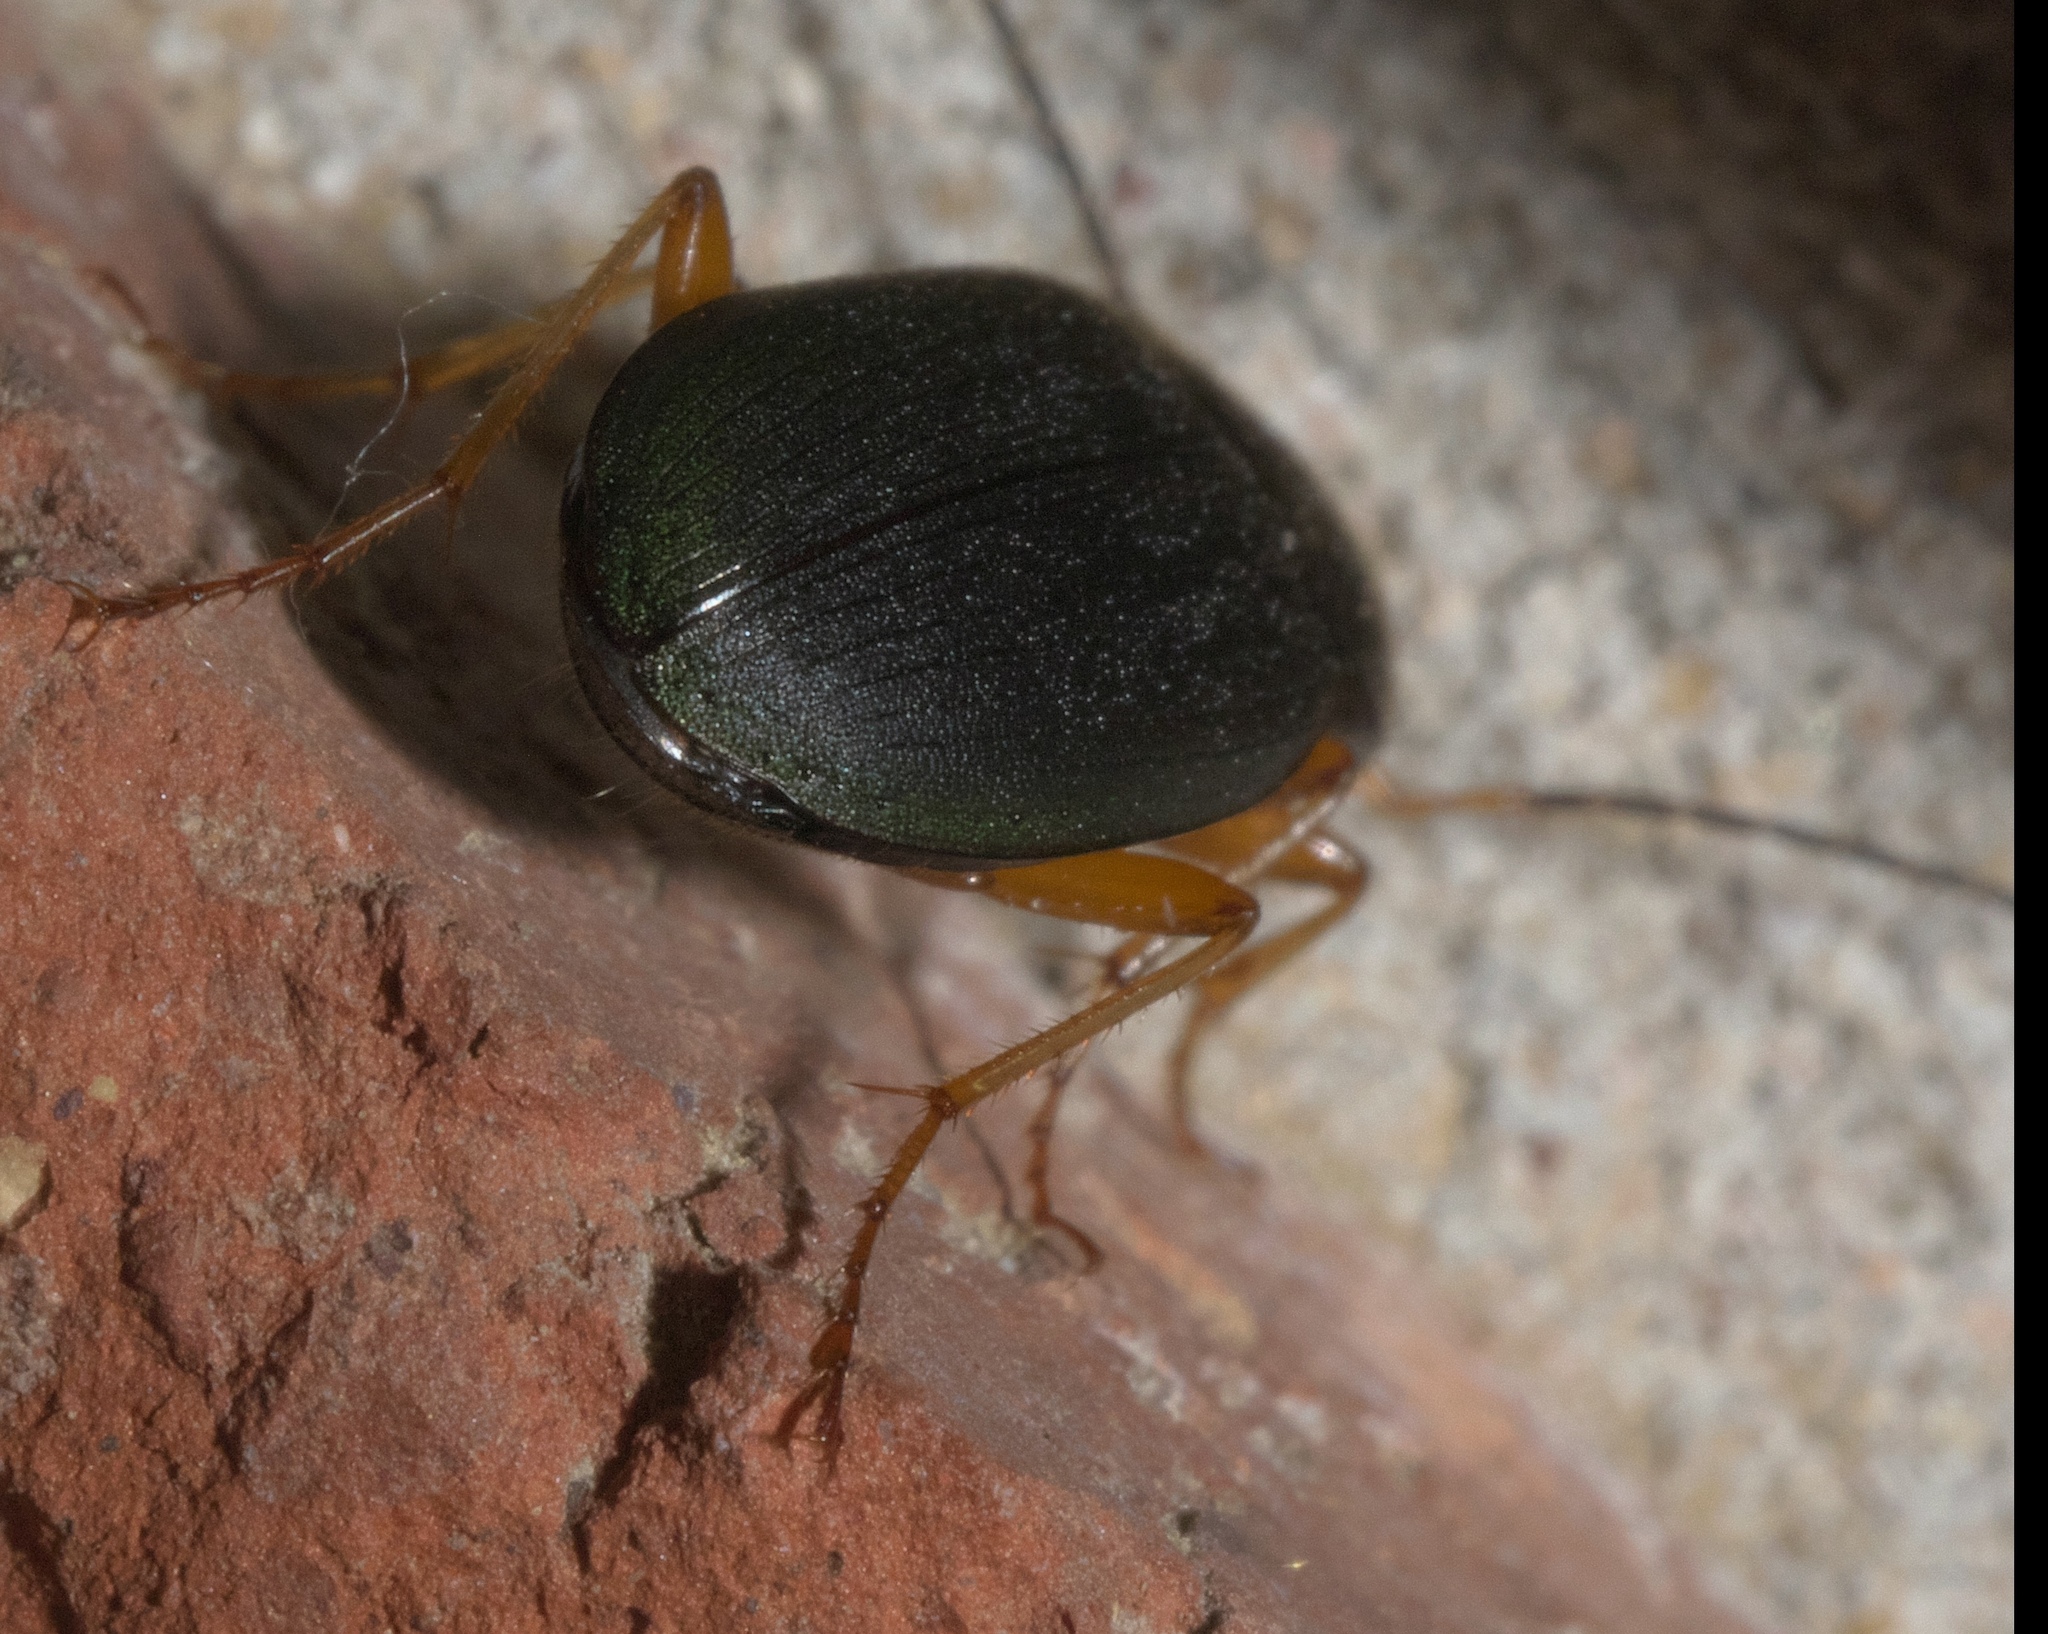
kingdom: Animalia
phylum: Arthropoda
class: Insecta
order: Coleoptera
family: Carabidae
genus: Chlaenius
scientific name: Chlaenius lithophilus
